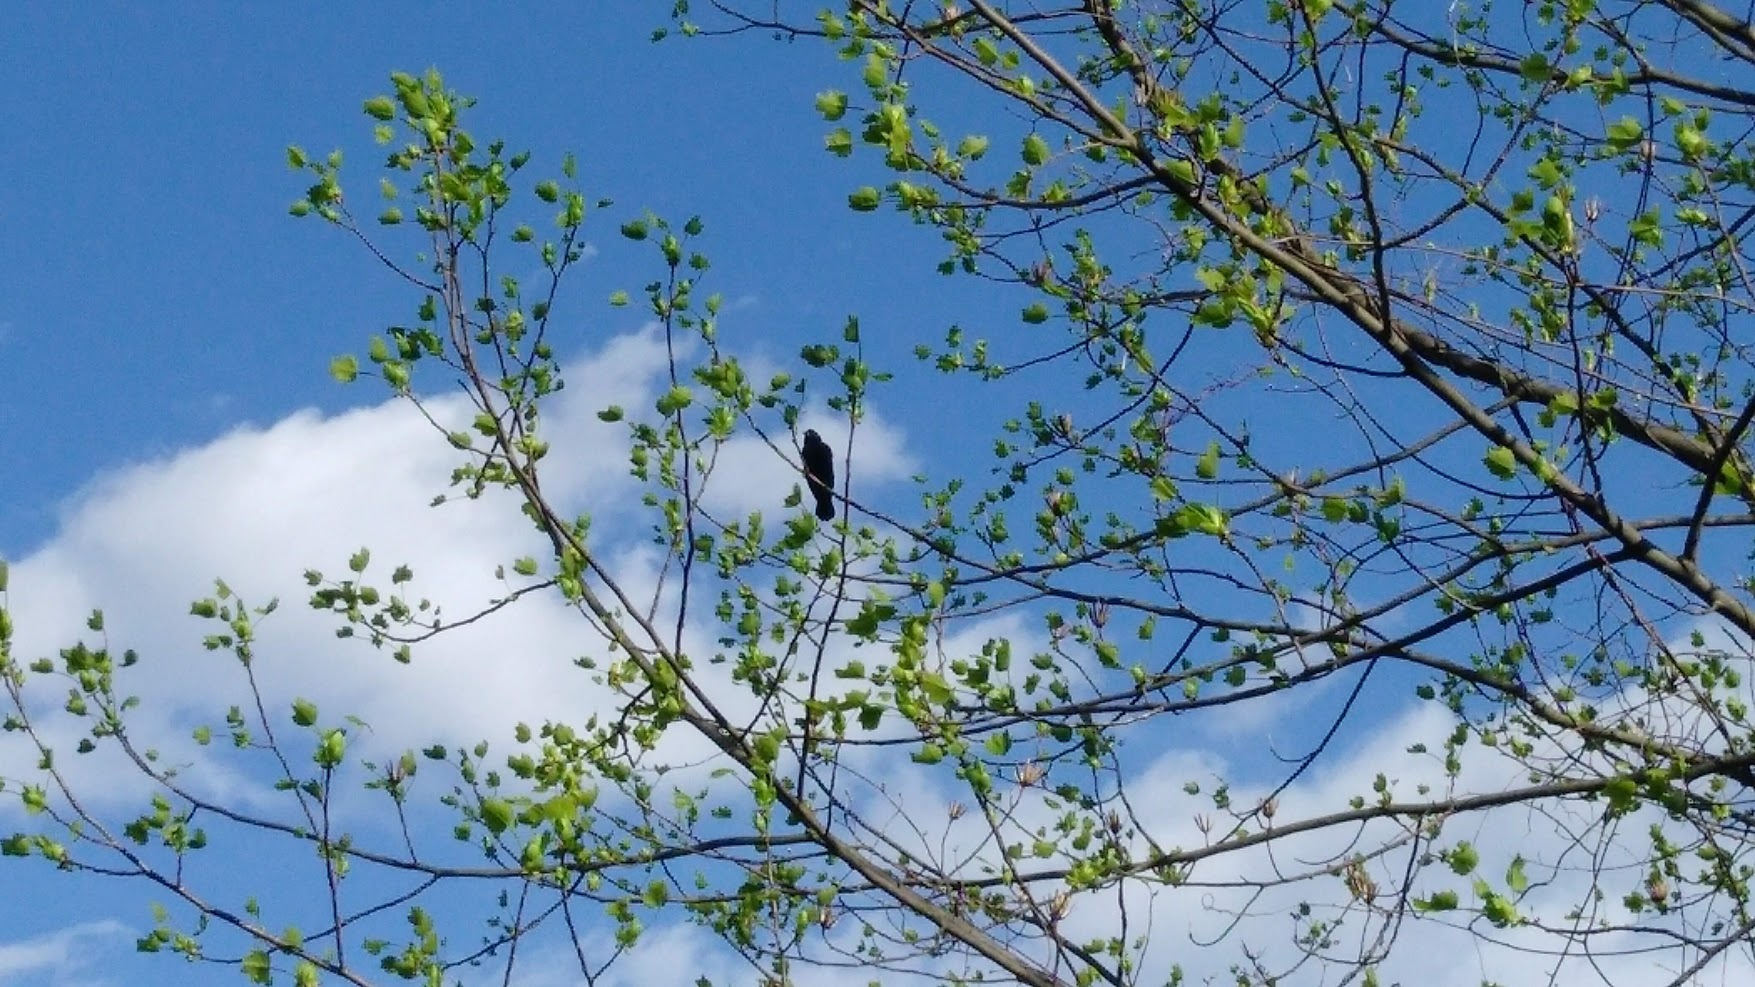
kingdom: Animalia
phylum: Chordata
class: Aves
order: Passeriformes
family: Icteridae
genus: Agelaius
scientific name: Agelaius phoeniceus
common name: Red-winged blackbird
